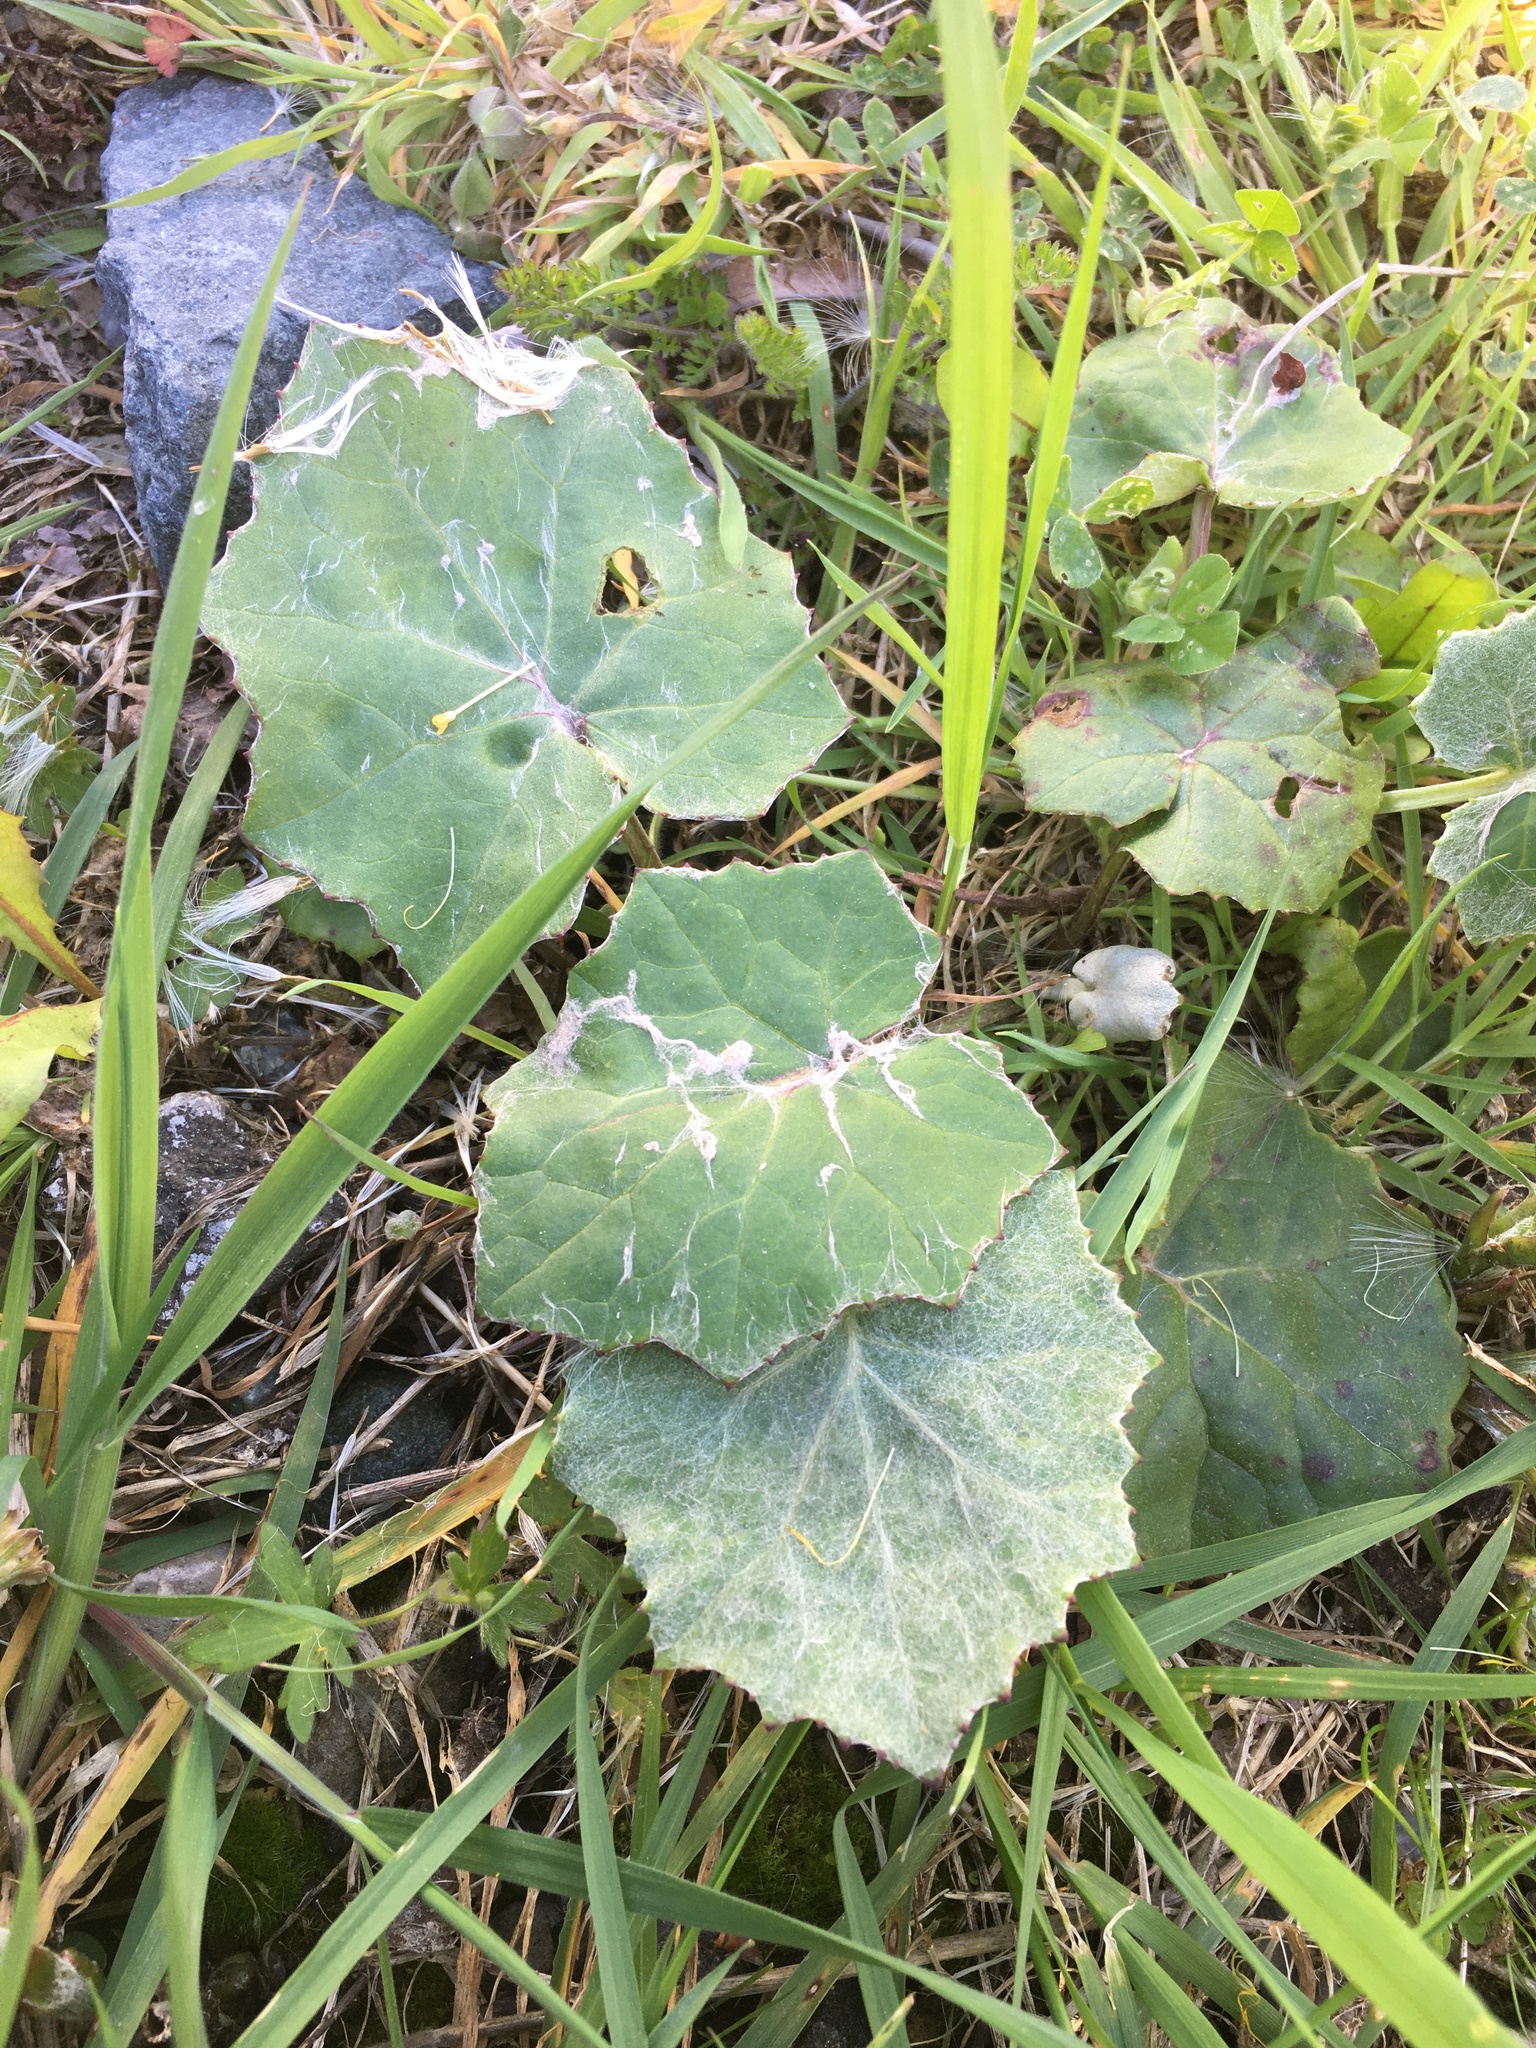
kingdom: Plantae
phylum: Tracheophyta
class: Magnoliopsida
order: Asterales
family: Asteraceae
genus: Tussilago
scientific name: Tussilago farfara
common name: Coltsfoot
